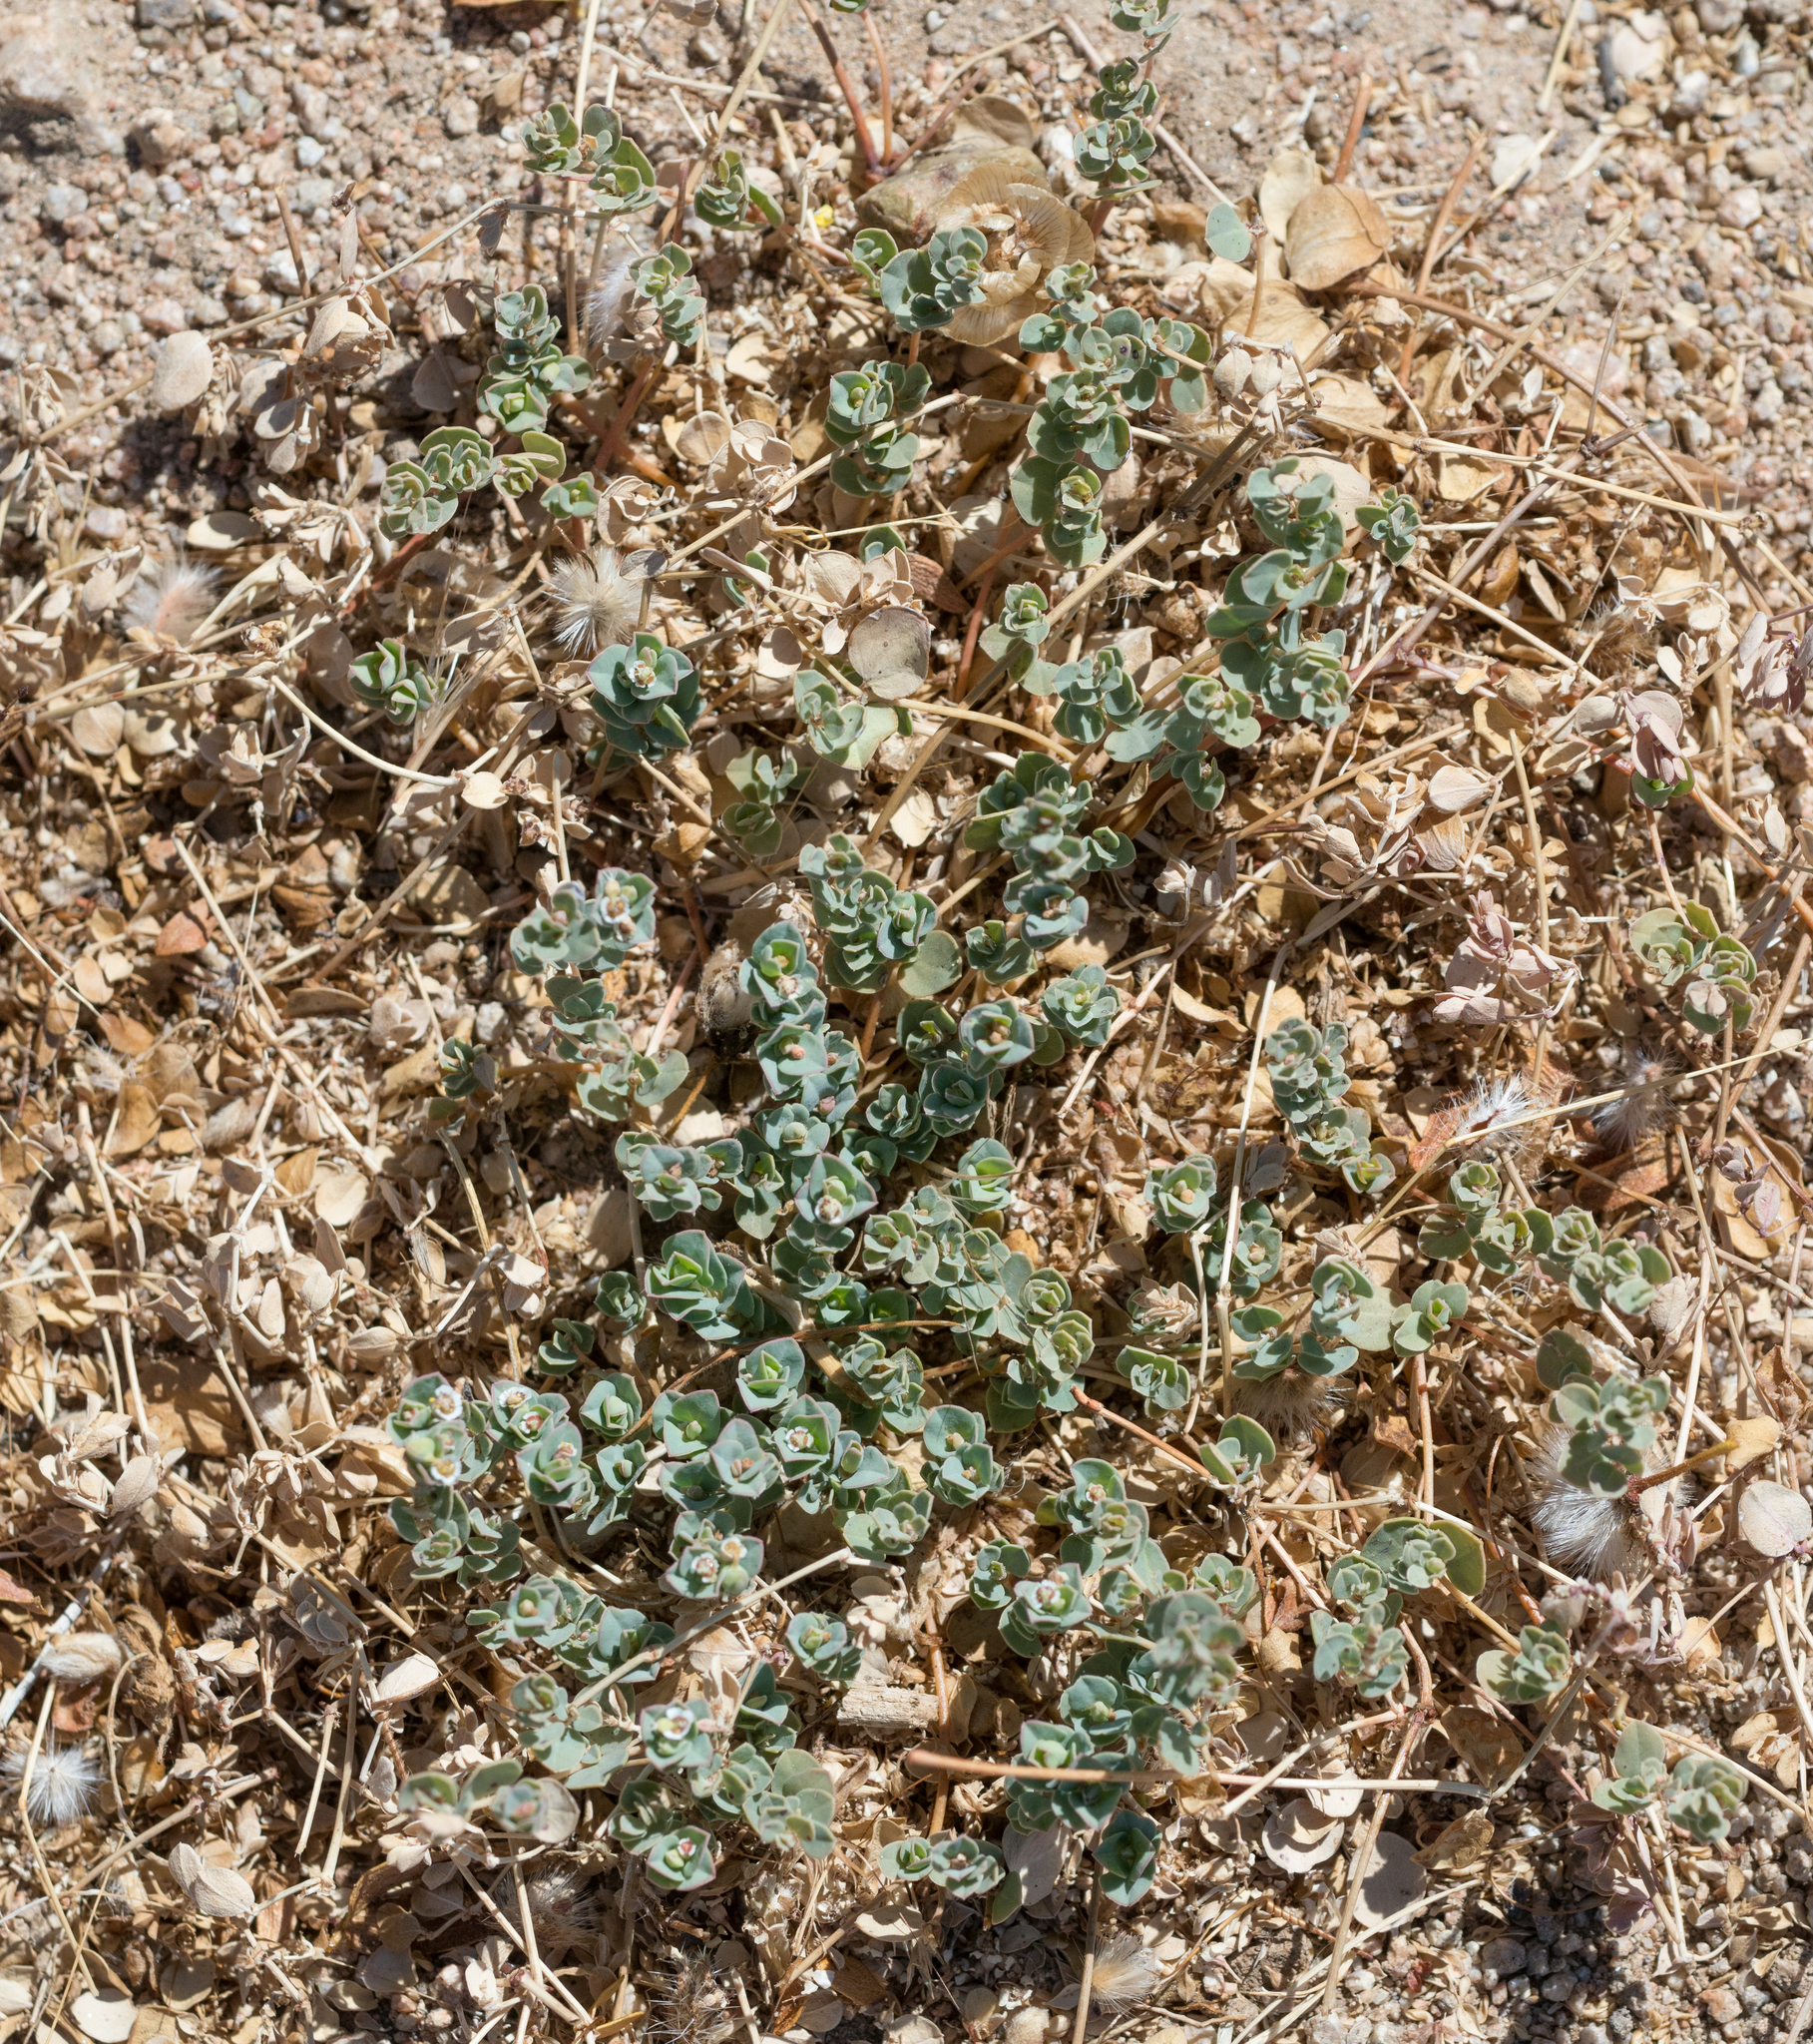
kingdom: Plantae
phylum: Tracheophyta
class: Magnoliopsida
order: Malpighiales
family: Euphorbiaceae
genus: Euphorbia
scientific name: Euphorbia albomarginata
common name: Whitemargin sandmat
